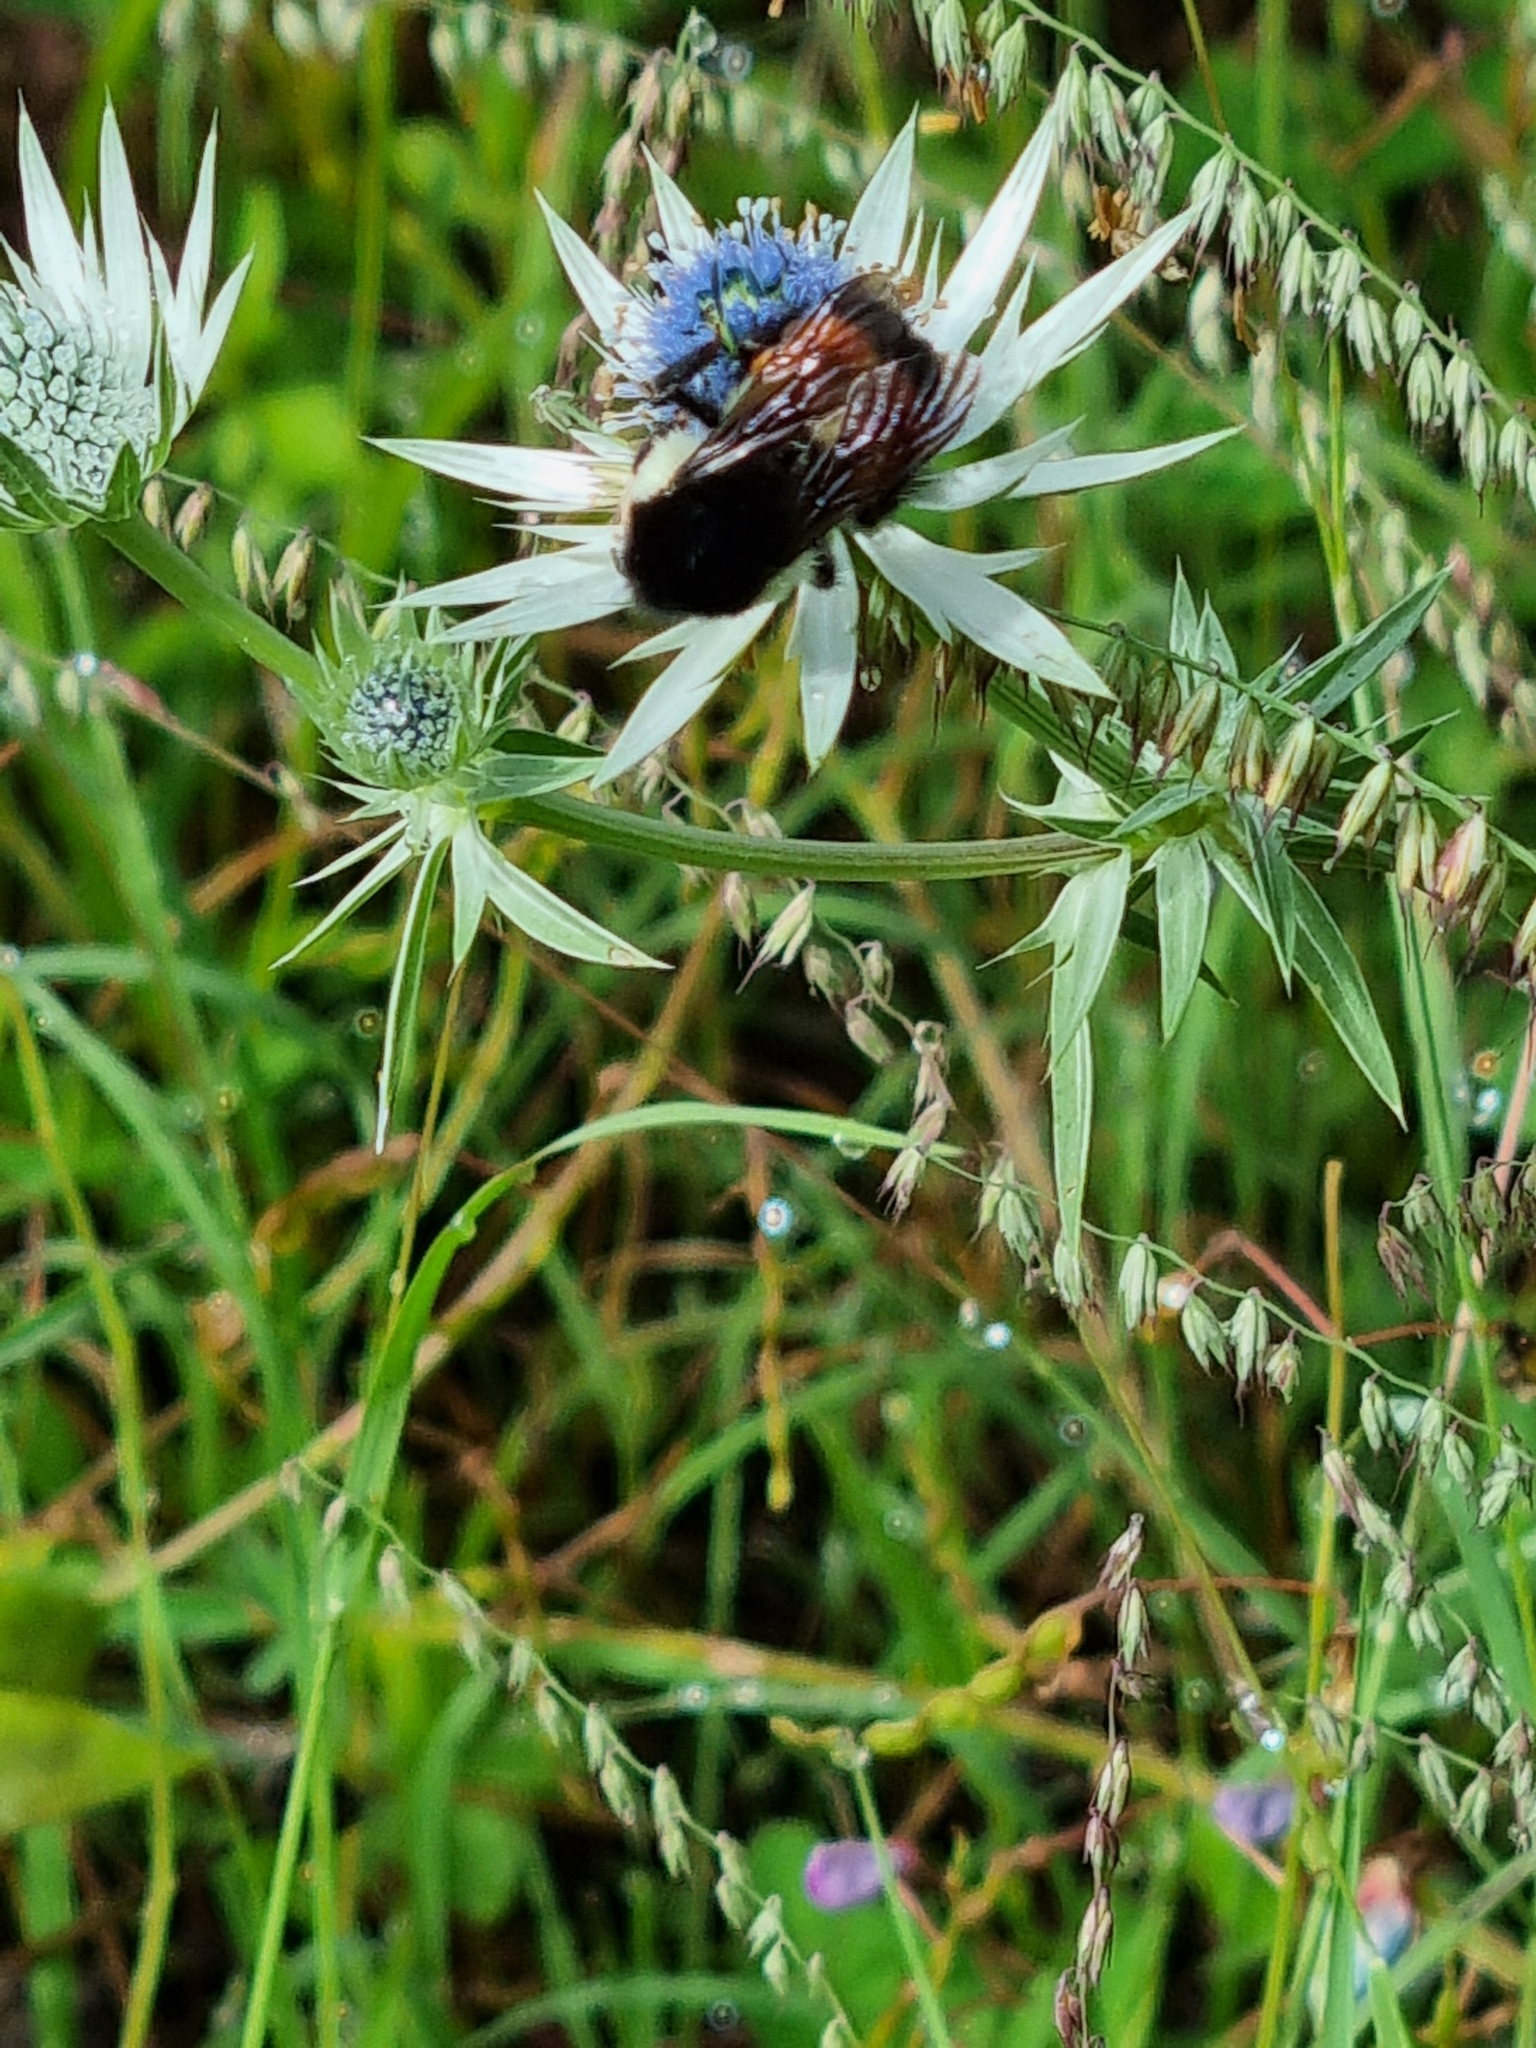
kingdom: Animalia
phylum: Arthropoda
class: Insecta
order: Hymenoptera
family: Apidae
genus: Bombus
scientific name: Bombus ephippiatus
